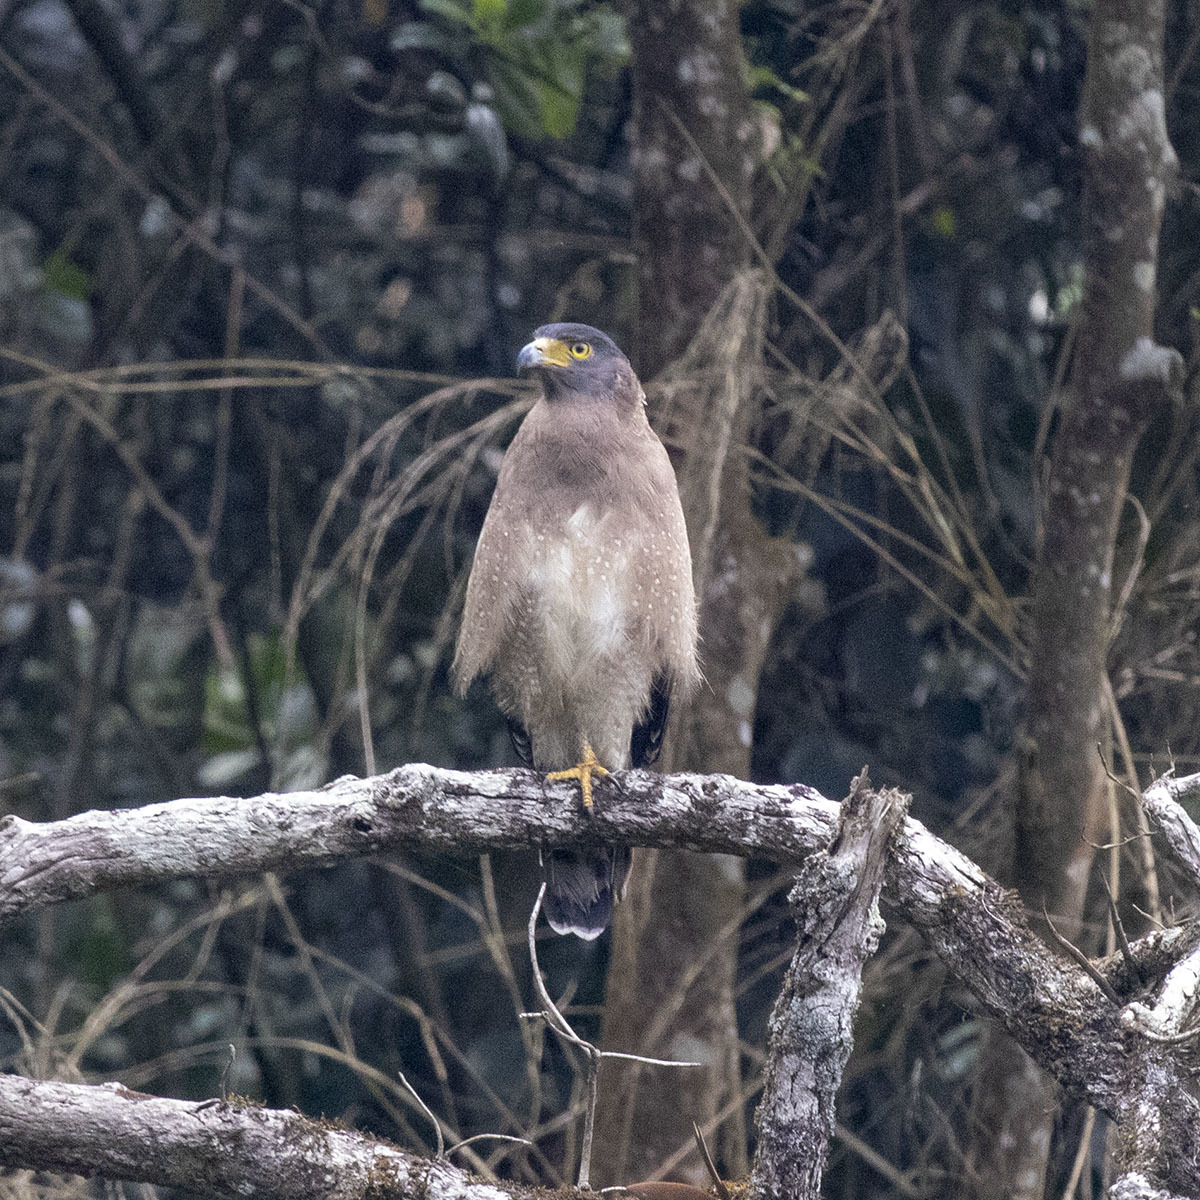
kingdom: Animalia
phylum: Chordata
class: Aves
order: Accipitriformes
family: Accipitridae
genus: Spilornis
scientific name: Spilornis cheela
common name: Crested serpent eagle
